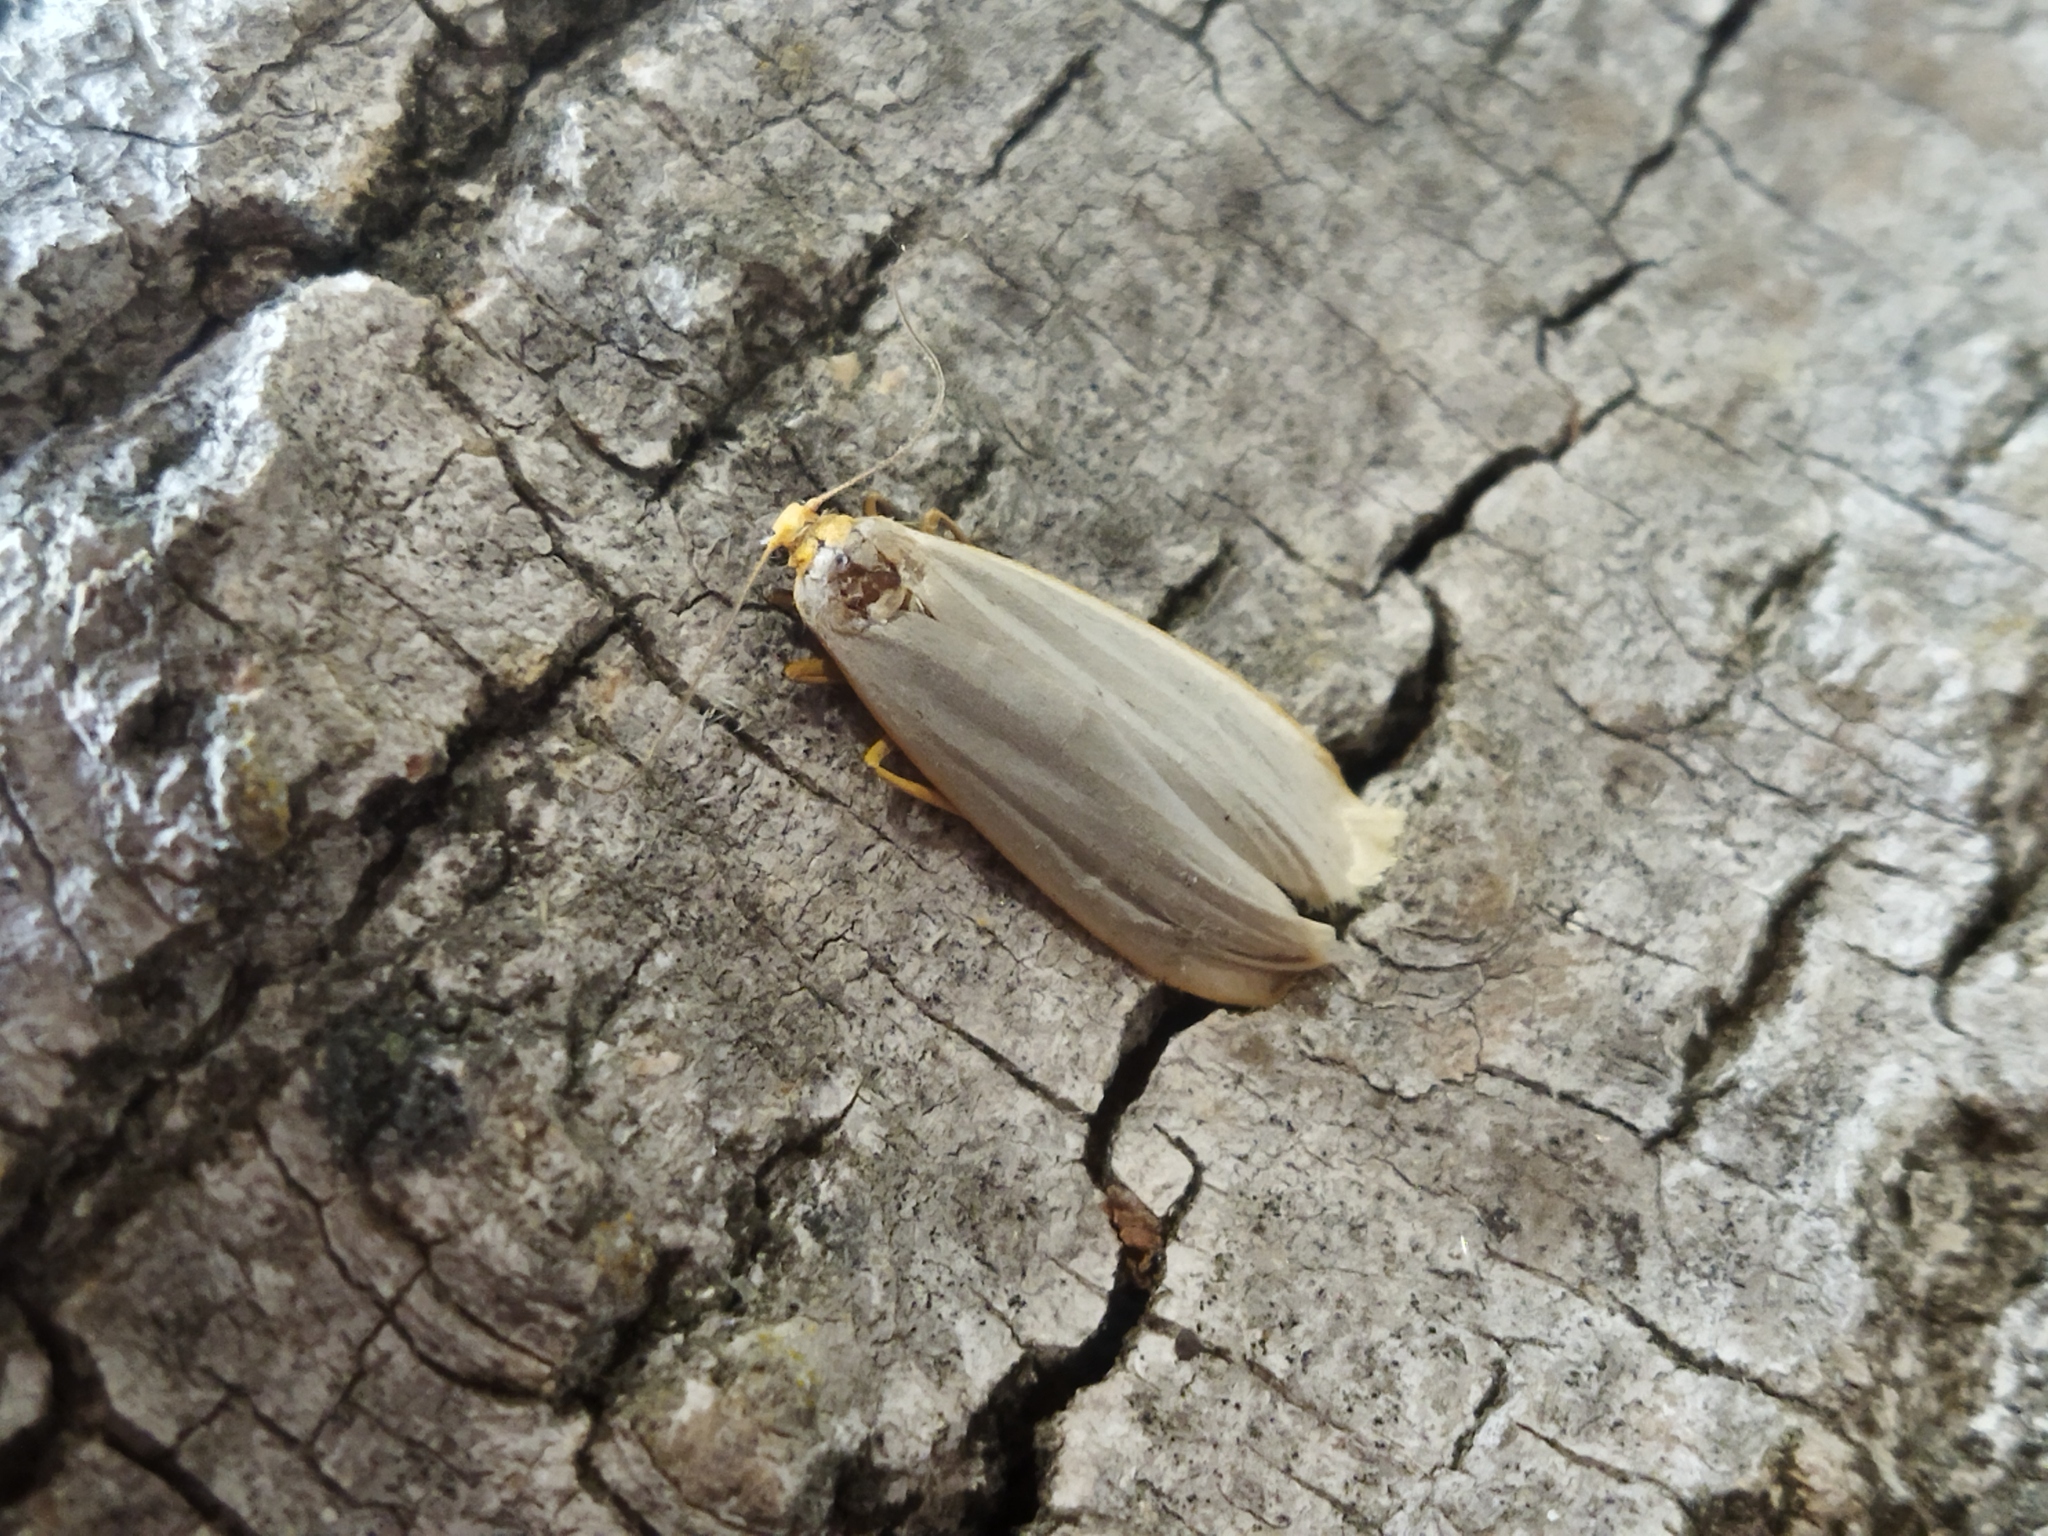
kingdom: Animalia
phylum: Arthropoda
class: Insecta
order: Lepidoptera
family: Erebidae
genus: Eilema
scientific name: Eilema caniola
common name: Hoary footman
